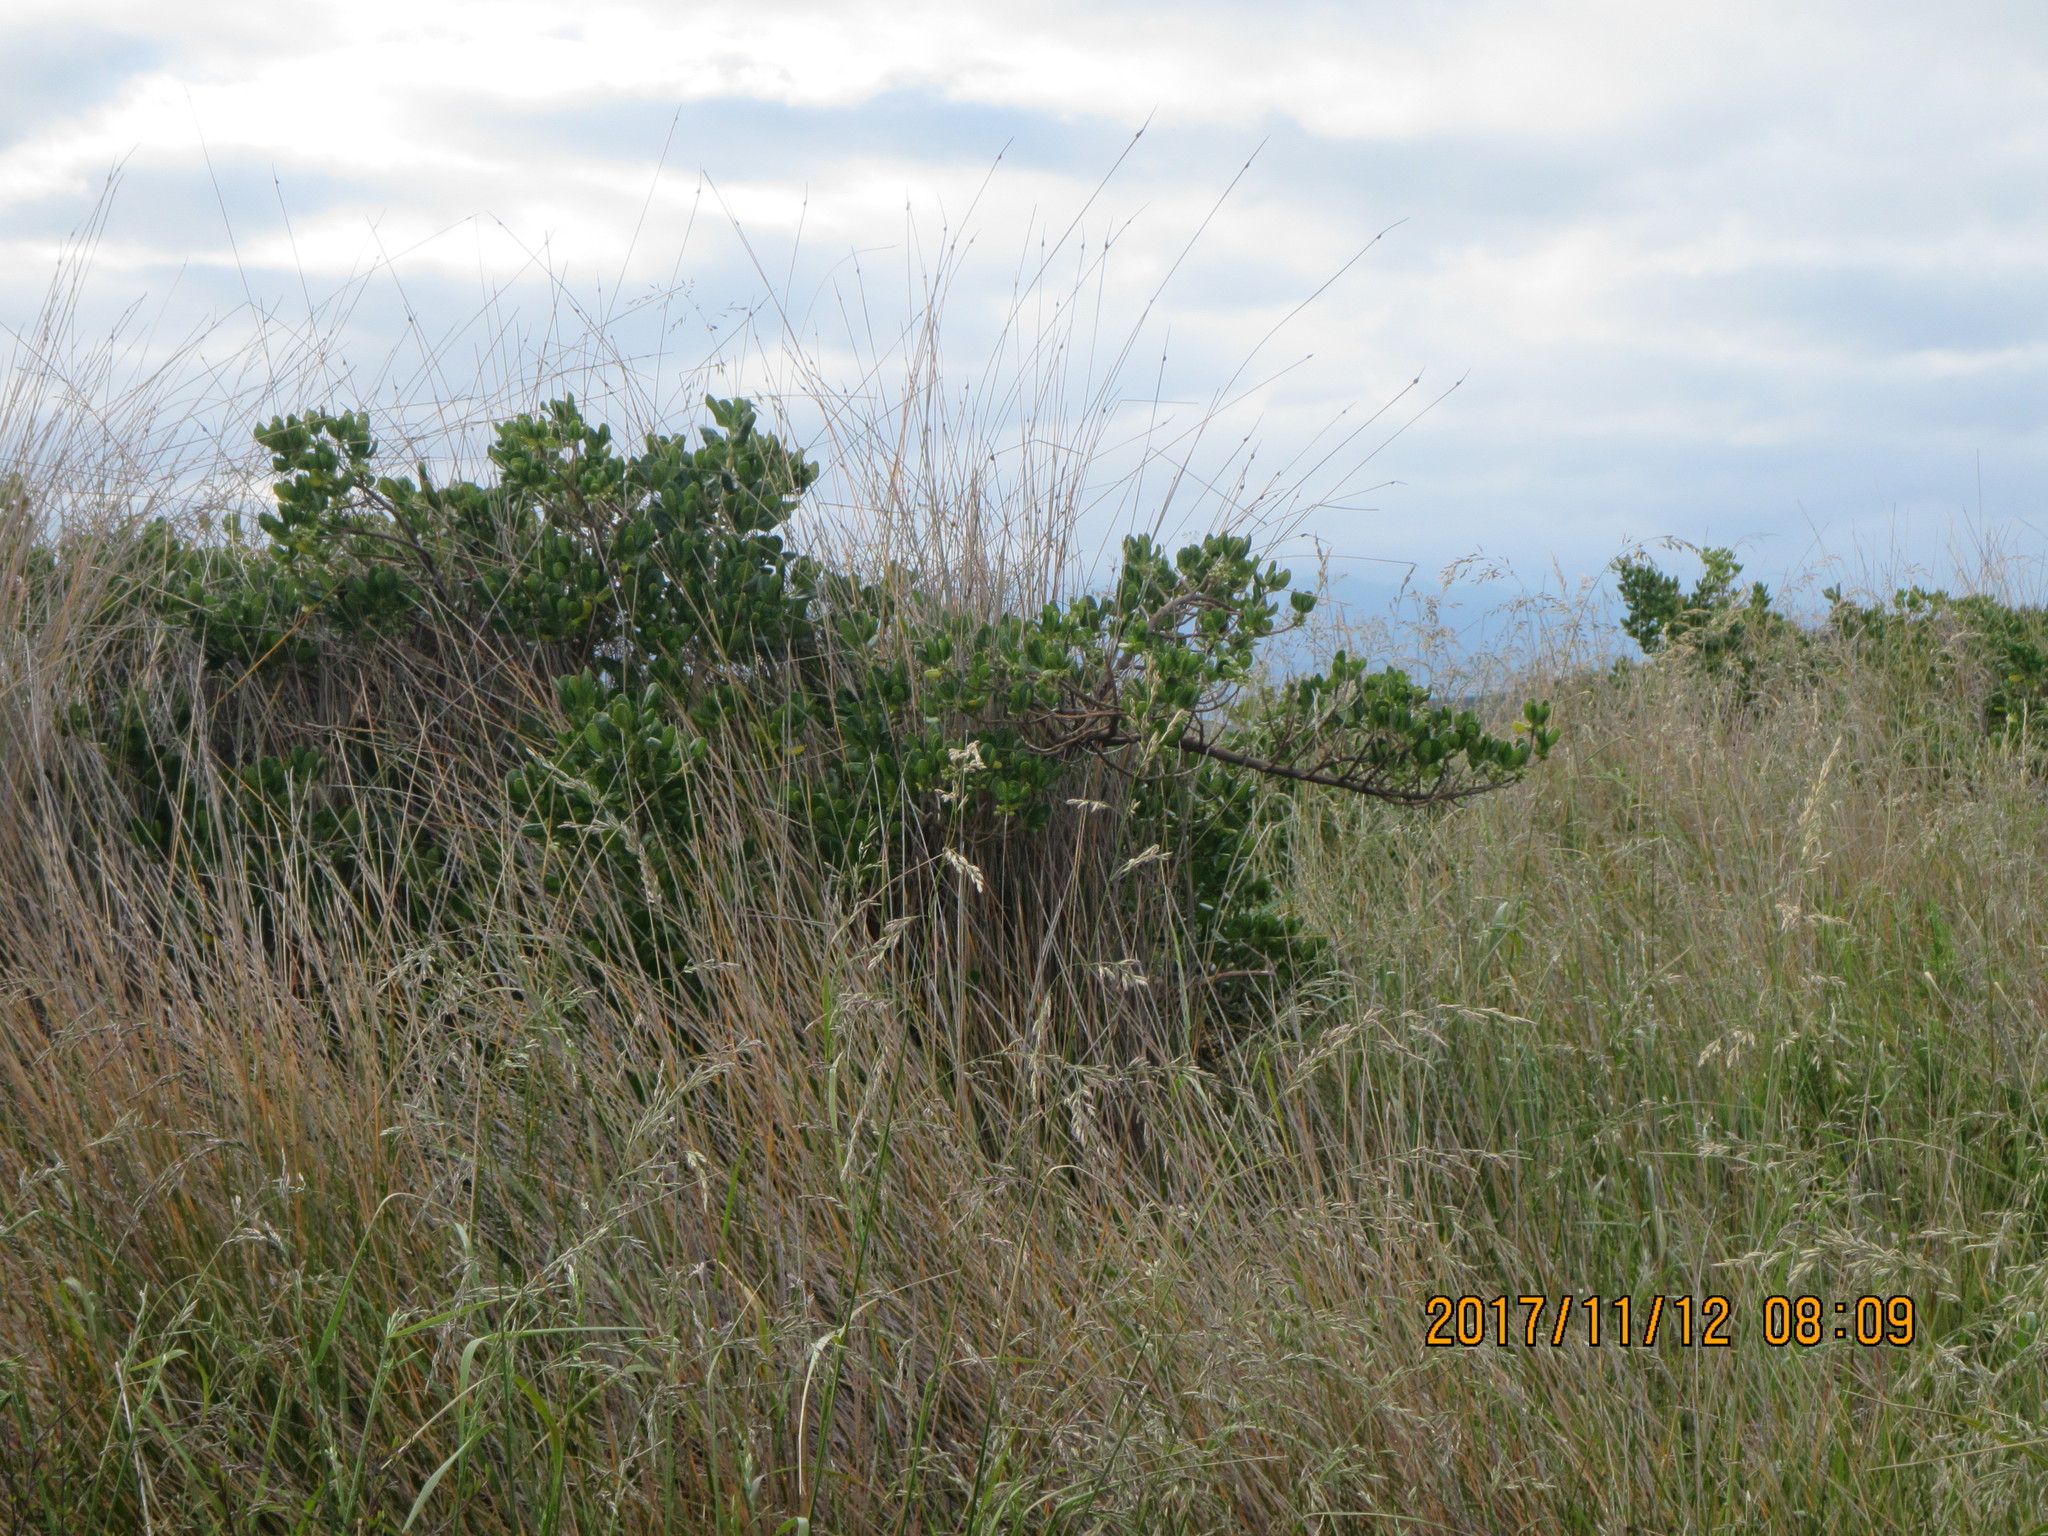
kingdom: Plantae
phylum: Tracheophyta
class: Magnoliopsida
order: Gentianales
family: Rubiaceae
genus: Coprosma
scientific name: Coprosma repens
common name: Tree bedstraw
